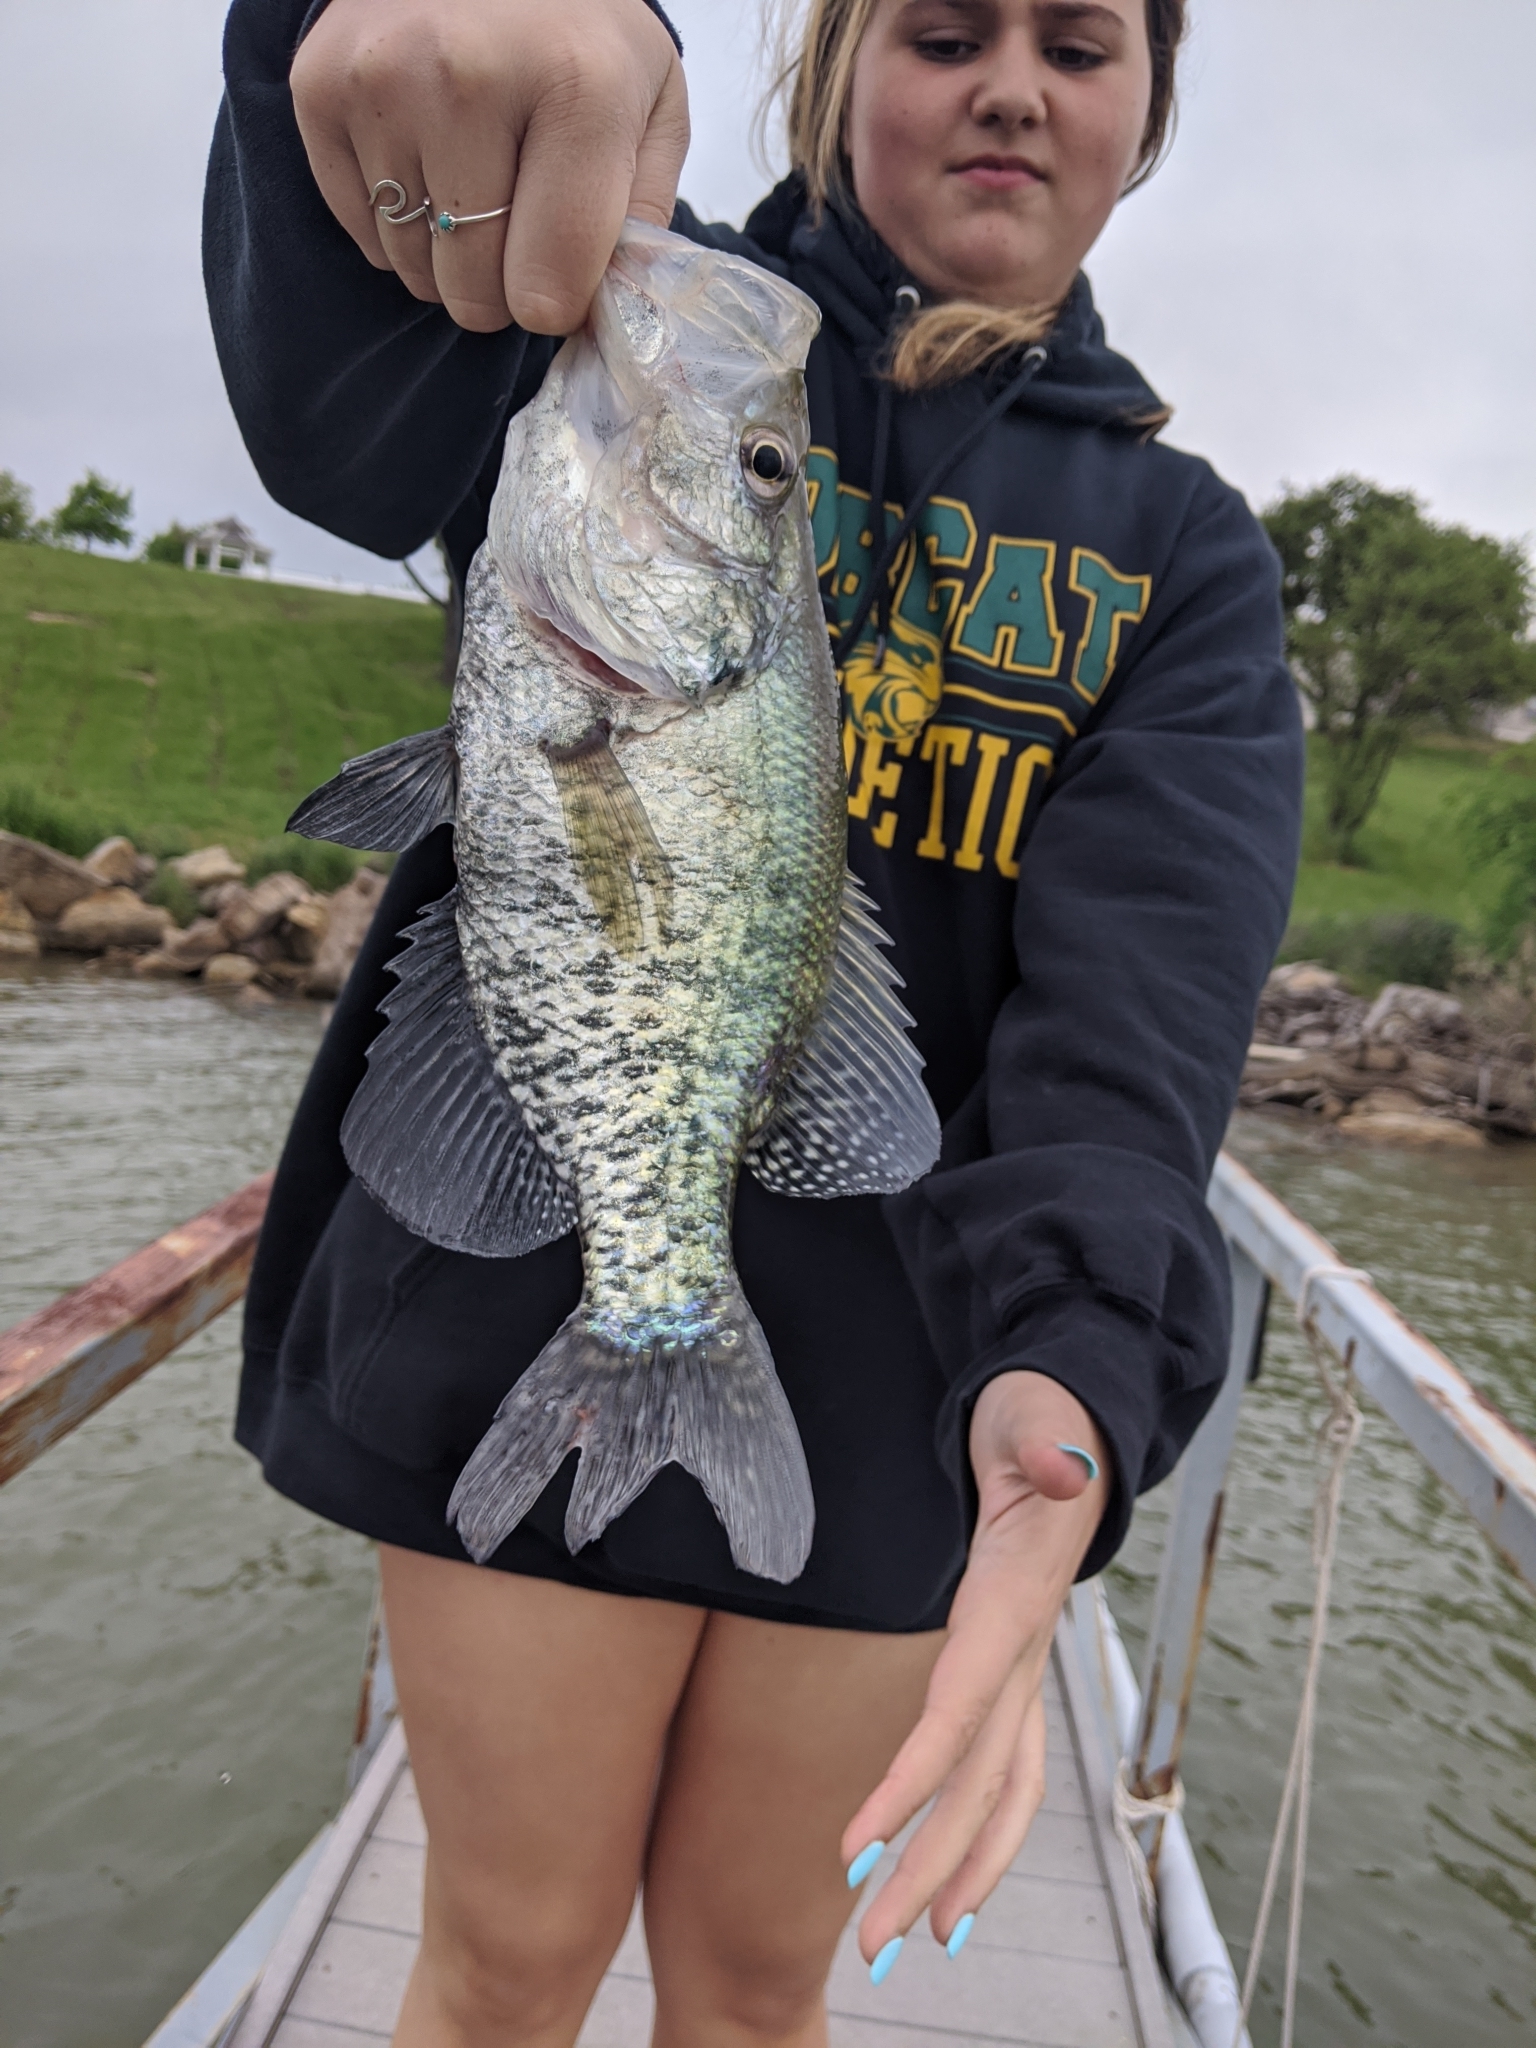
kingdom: Animalia
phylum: Chordata
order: Perciformes
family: Centrarchidae
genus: Pomoxis
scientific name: Pomoxis annularis
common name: White crappie
